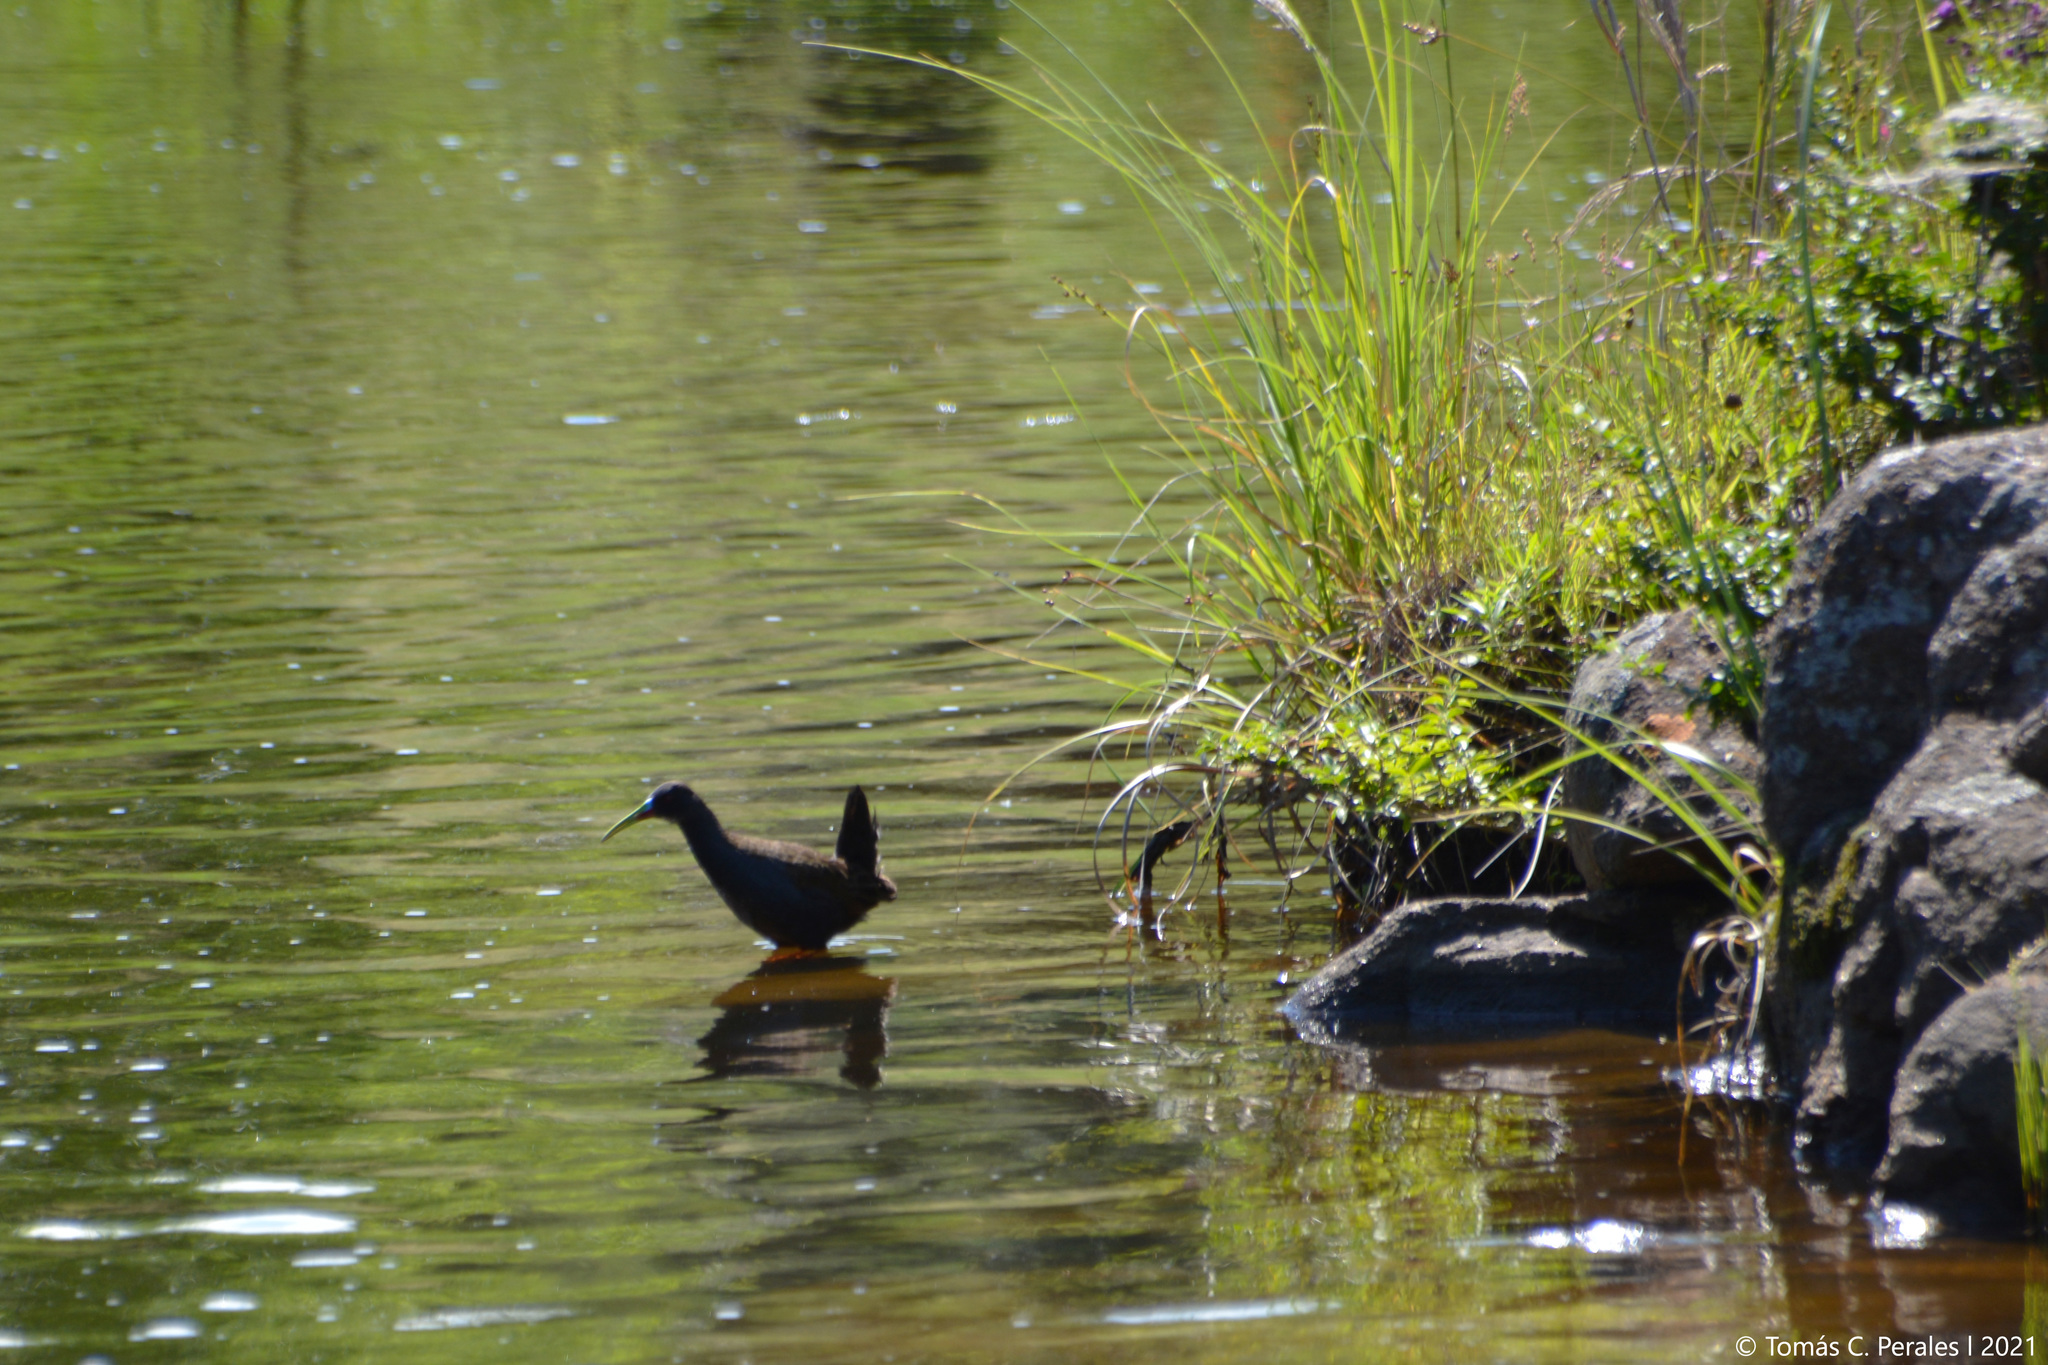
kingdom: Animalia
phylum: Chordata
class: Aves
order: Gruiformes
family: Rallidae
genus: Pardirallus
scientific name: Pardirallus sanguinolentus
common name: Plumbeous rail
